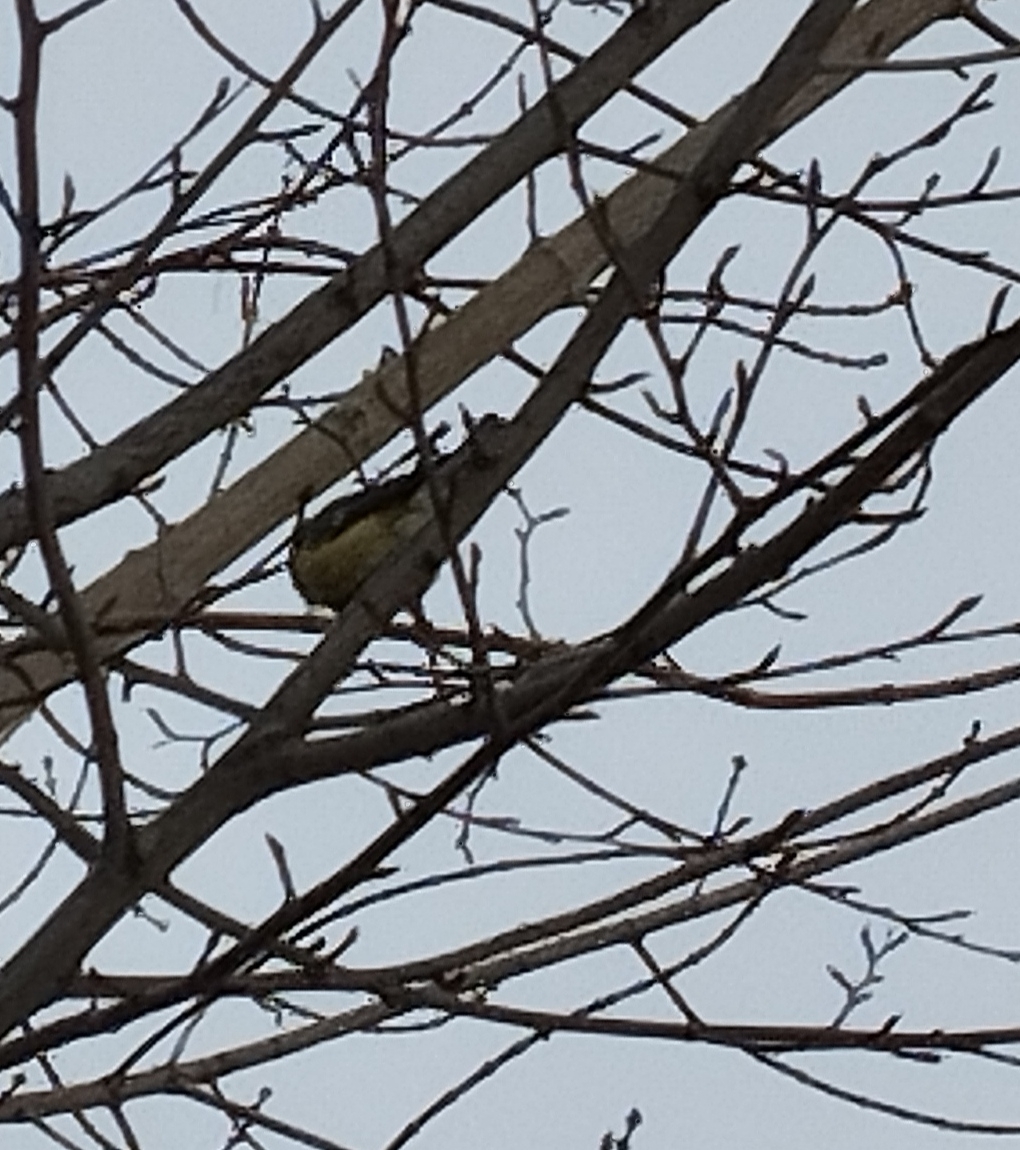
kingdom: Animalia
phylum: Chordata
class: Aves
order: Passeriformes
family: Paridae
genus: Cyanistes
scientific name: Cyanistes caeruleus
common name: Eurasian blue tit
